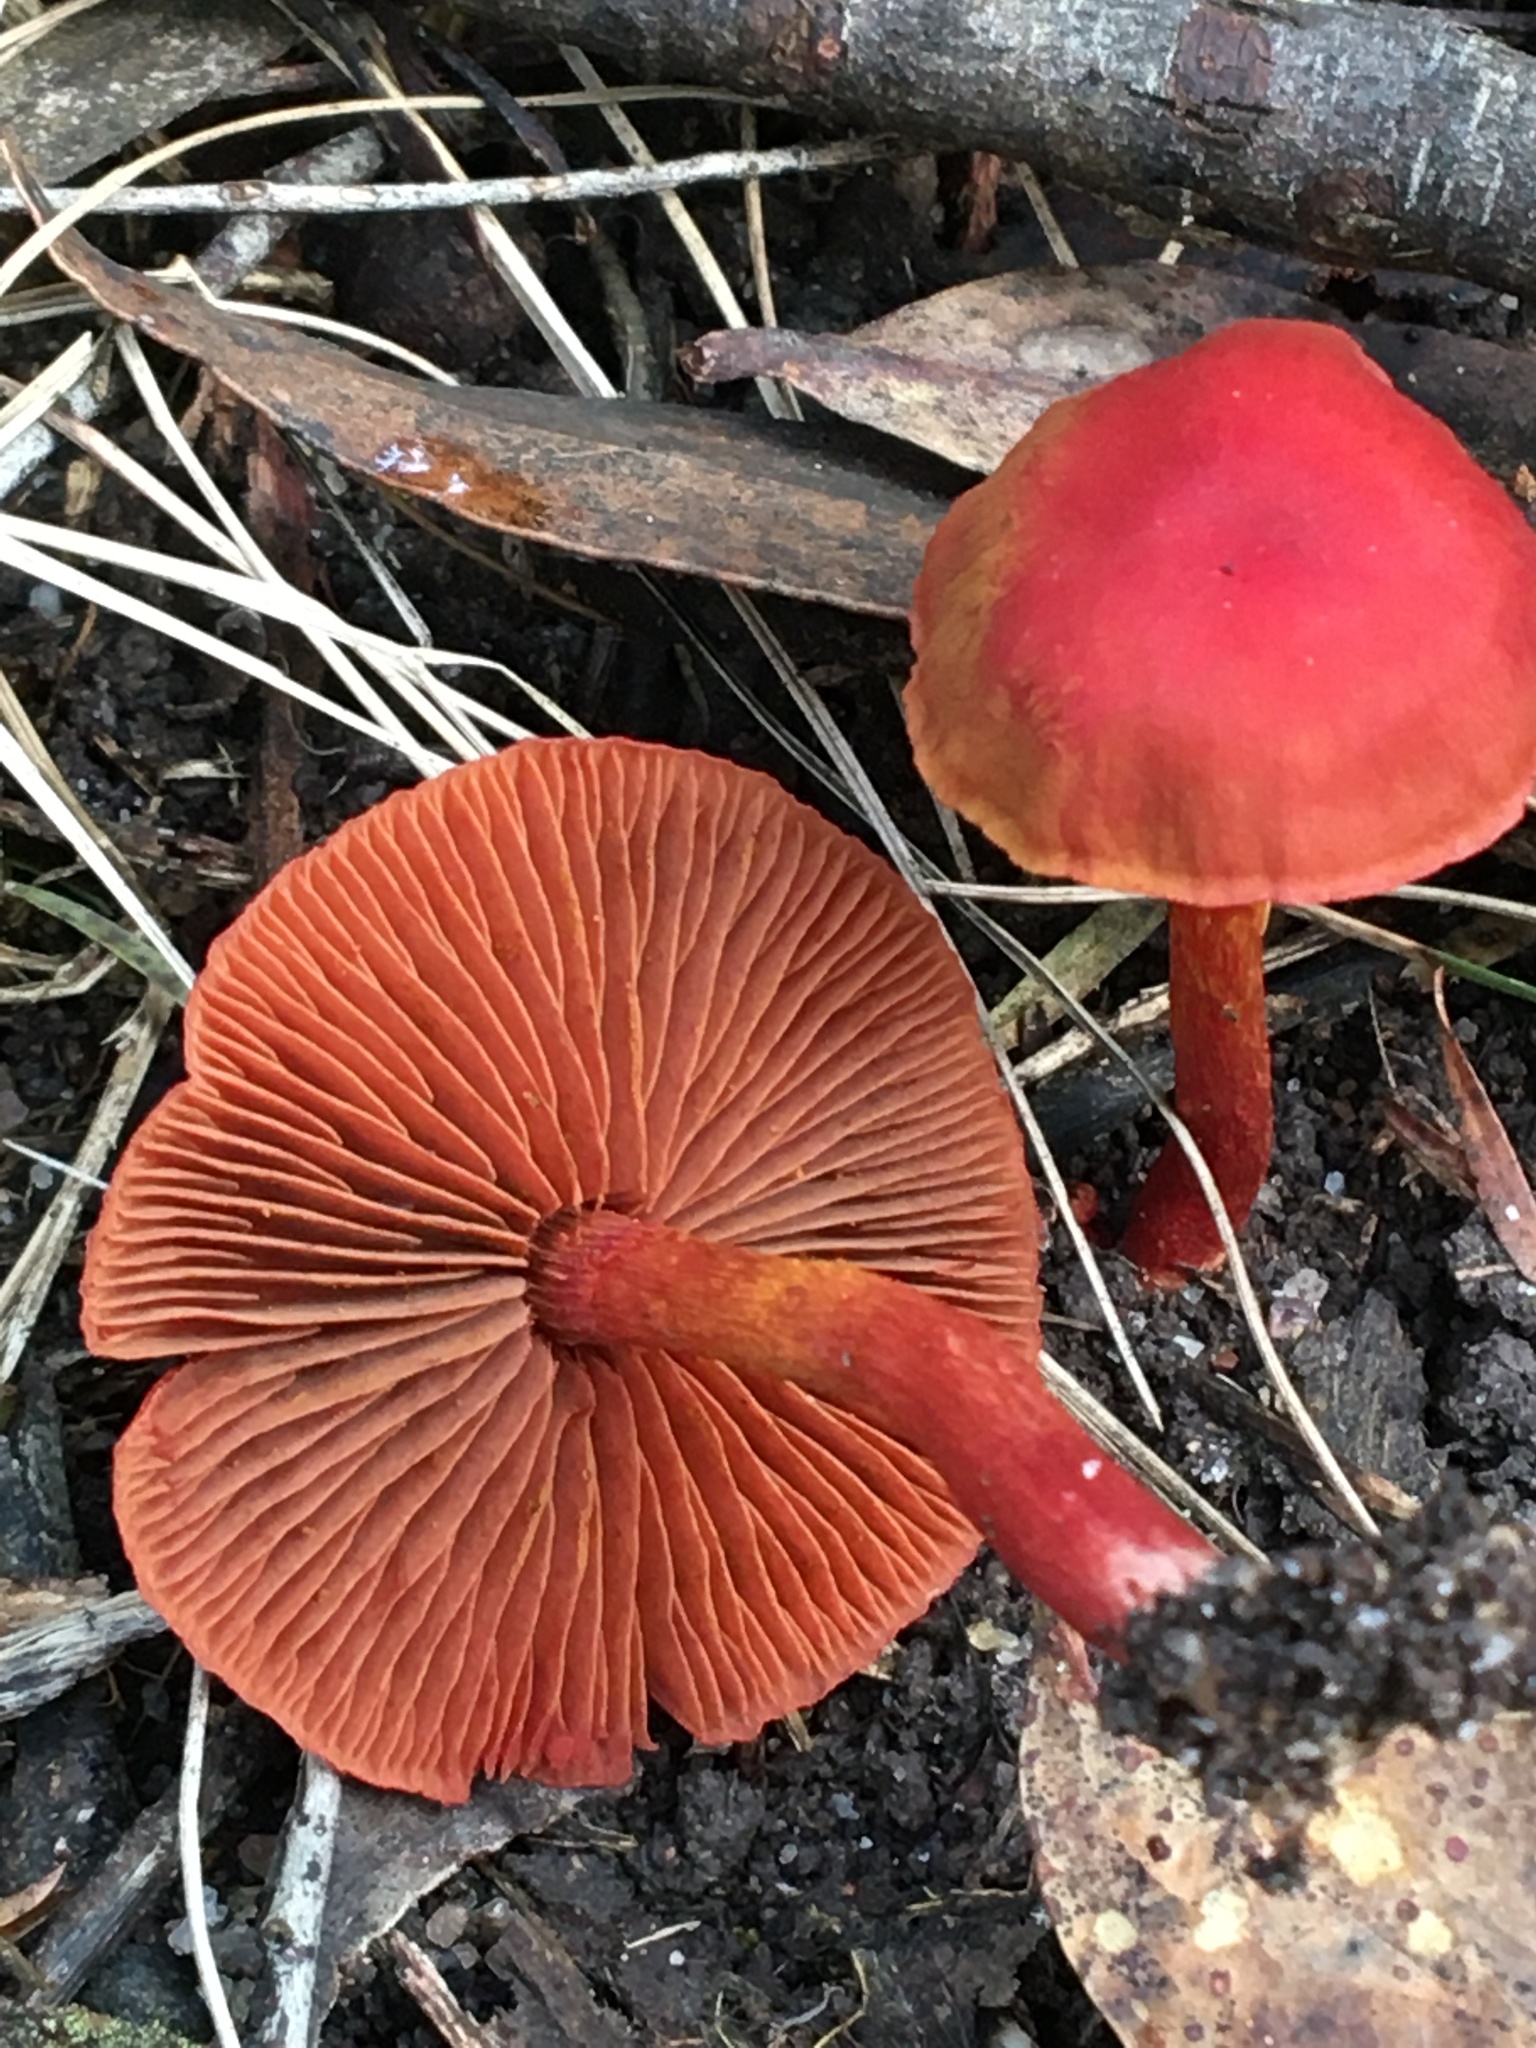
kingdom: Fungi
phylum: Basidiomycota
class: Agaricomycetes
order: Agaricales
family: Cortinariaceae
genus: Cortinarius
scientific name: Cortinarius
